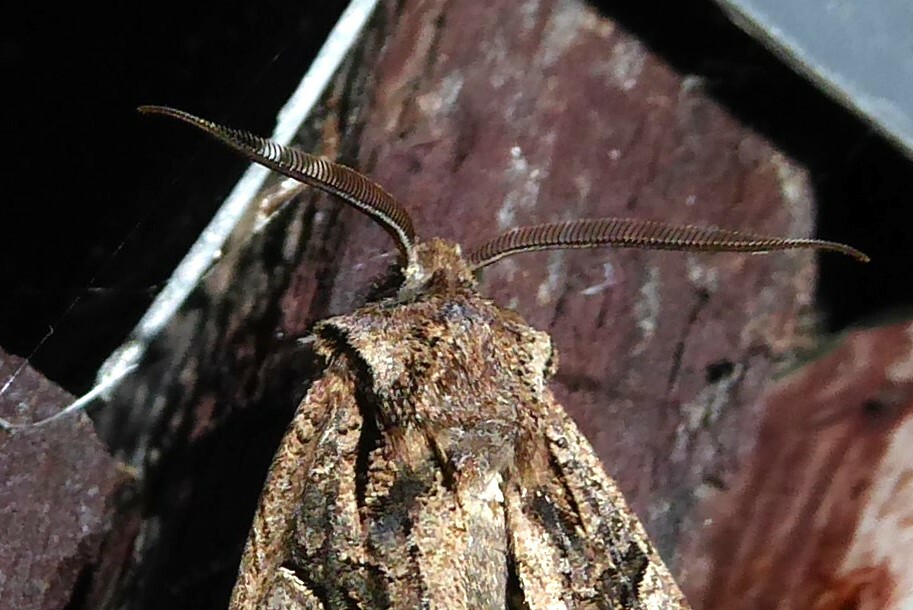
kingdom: Animalia
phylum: Arthropoda
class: Insecta
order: Lepidoptera
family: Noctuidae
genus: Ichneutica
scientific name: Ichneutica skelloni
